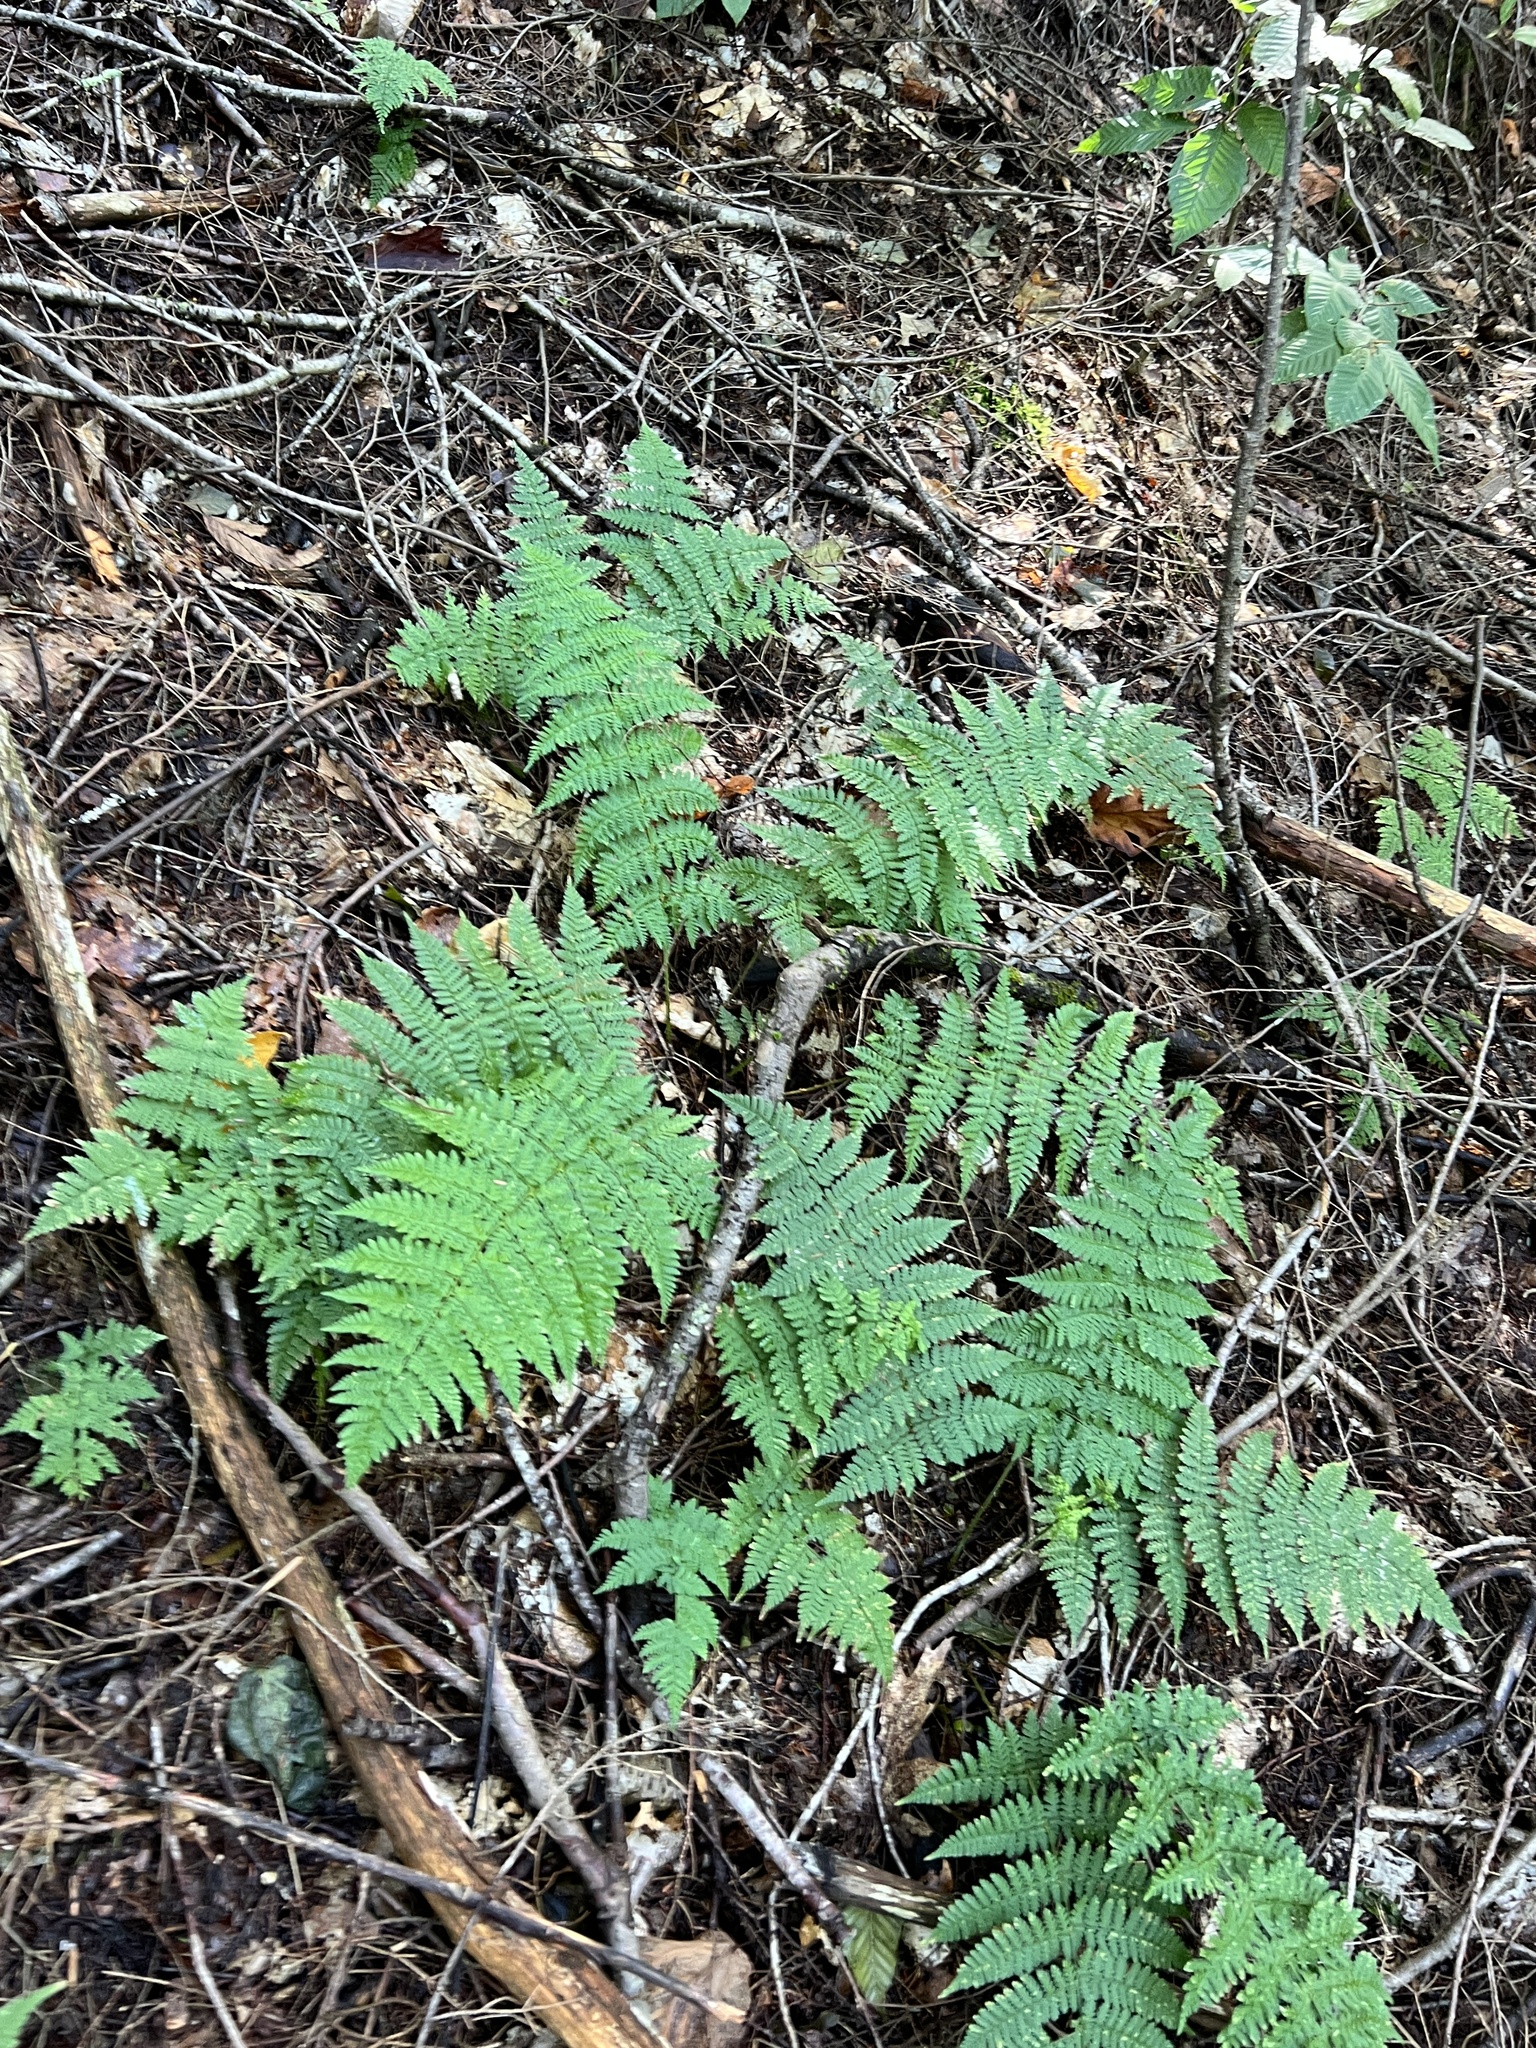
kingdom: Plantae
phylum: Tracheophyta
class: Polypodiopsida
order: Polypodiales
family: Dryopteridaceae
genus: Dryopteris
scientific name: Dryopteris intermedia
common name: Evergreen wood fern
